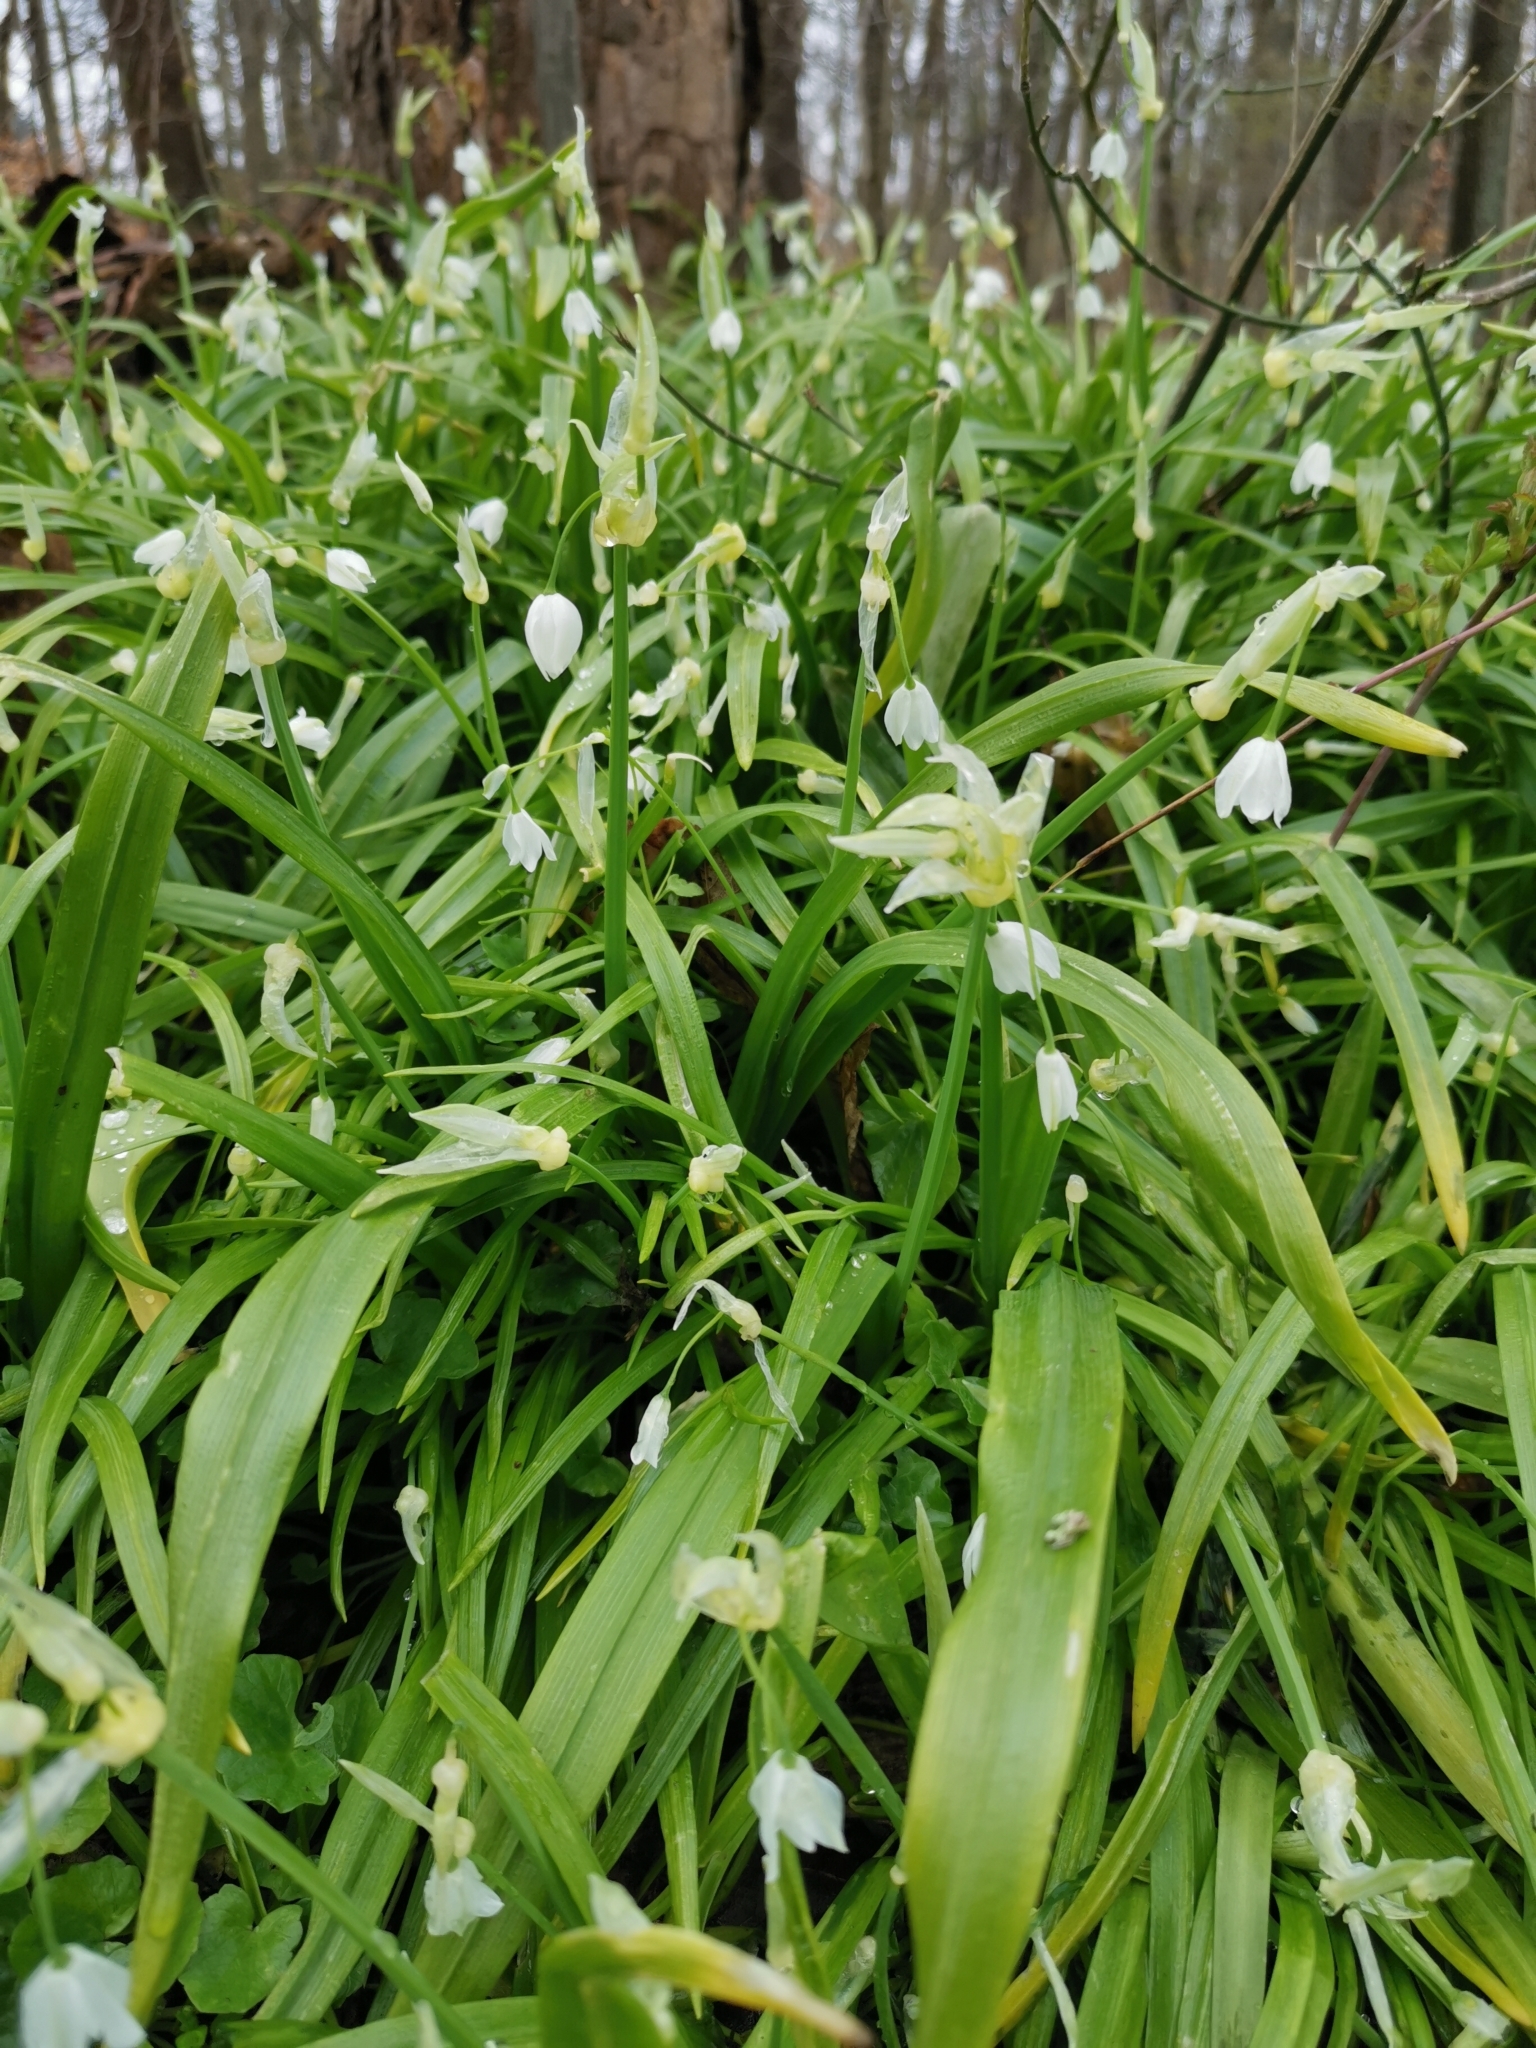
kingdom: Plantae
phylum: Tracheophyta
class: Liliopsida
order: Asparagales
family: Amaryllidaceae
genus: Allium
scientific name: Allium paradoxum
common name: Few-flowered garlic
